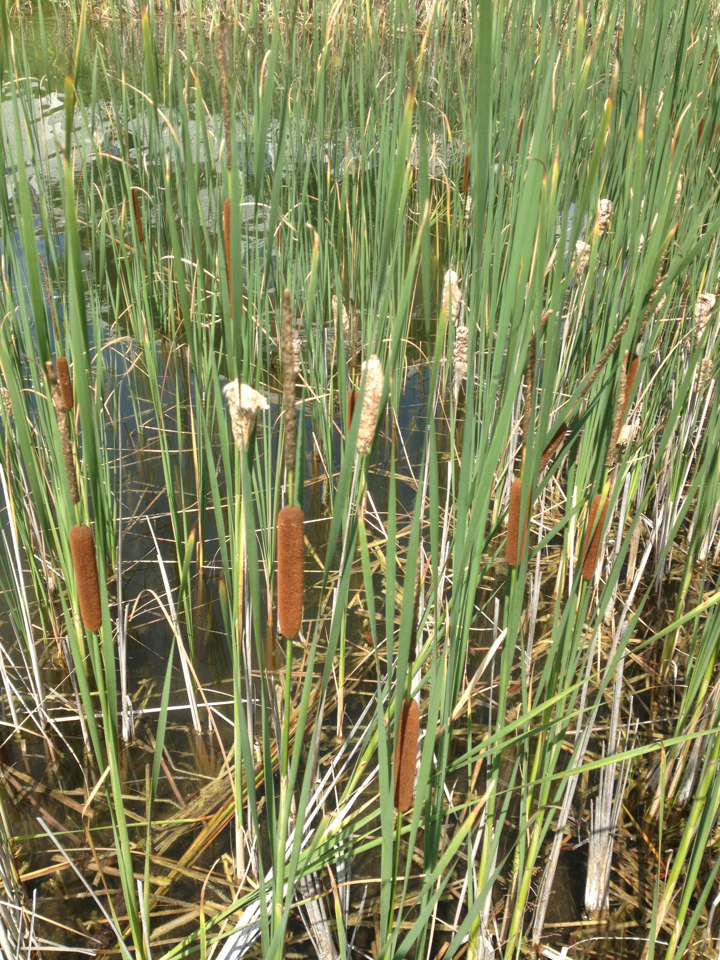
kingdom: Plantae
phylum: Tracheophyta
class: Liliopsida
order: Poales
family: Typhaceae
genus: Typha
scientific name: Typha angustifolia
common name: Lesser bulrush
